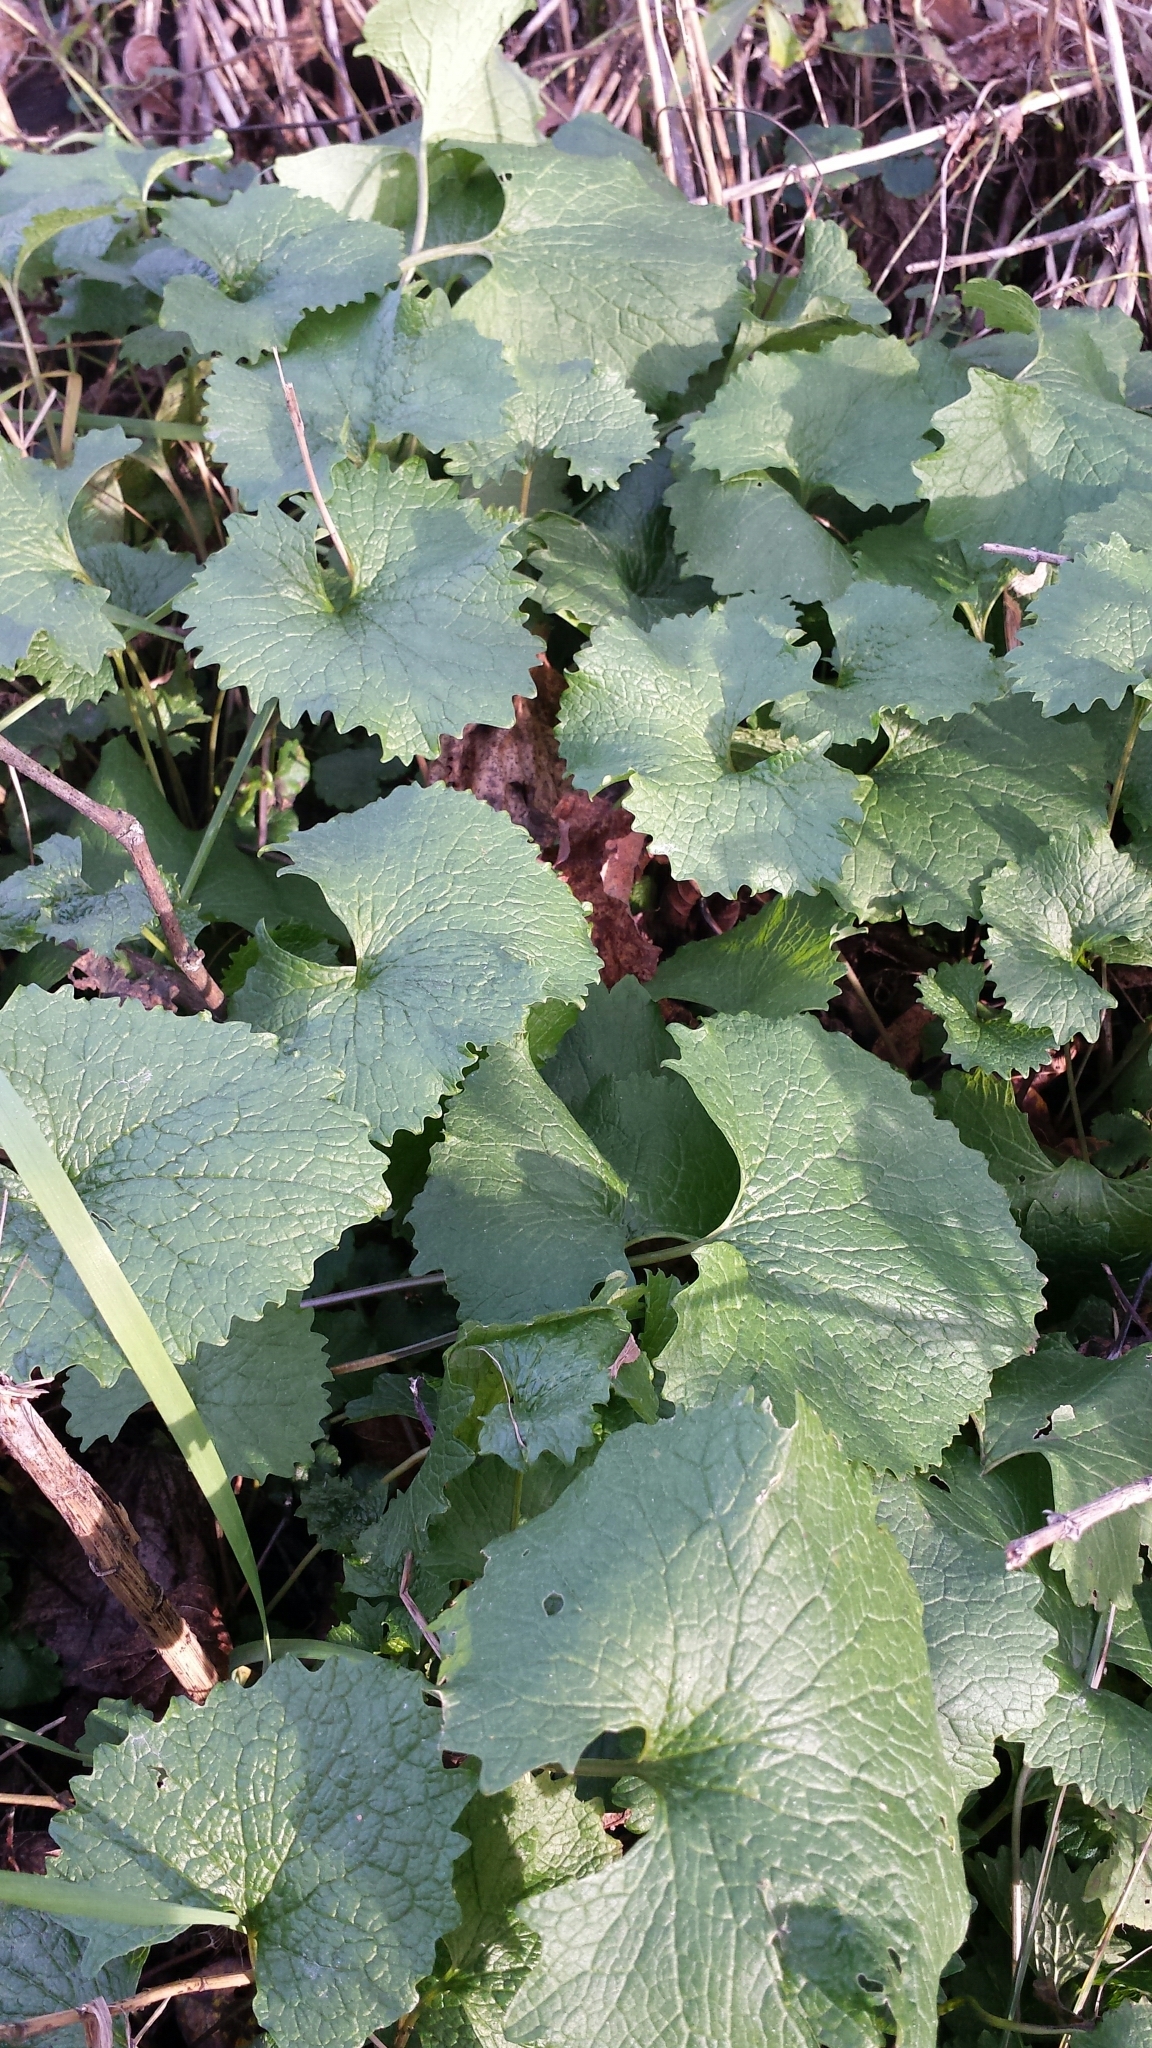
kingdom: Plantae
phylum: Tracheophyta
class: Magnoliopsida
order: Brassicales
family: Brassicaceae
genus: Alliaria
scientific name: Alliaria petiolata
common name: Garlic mustard
